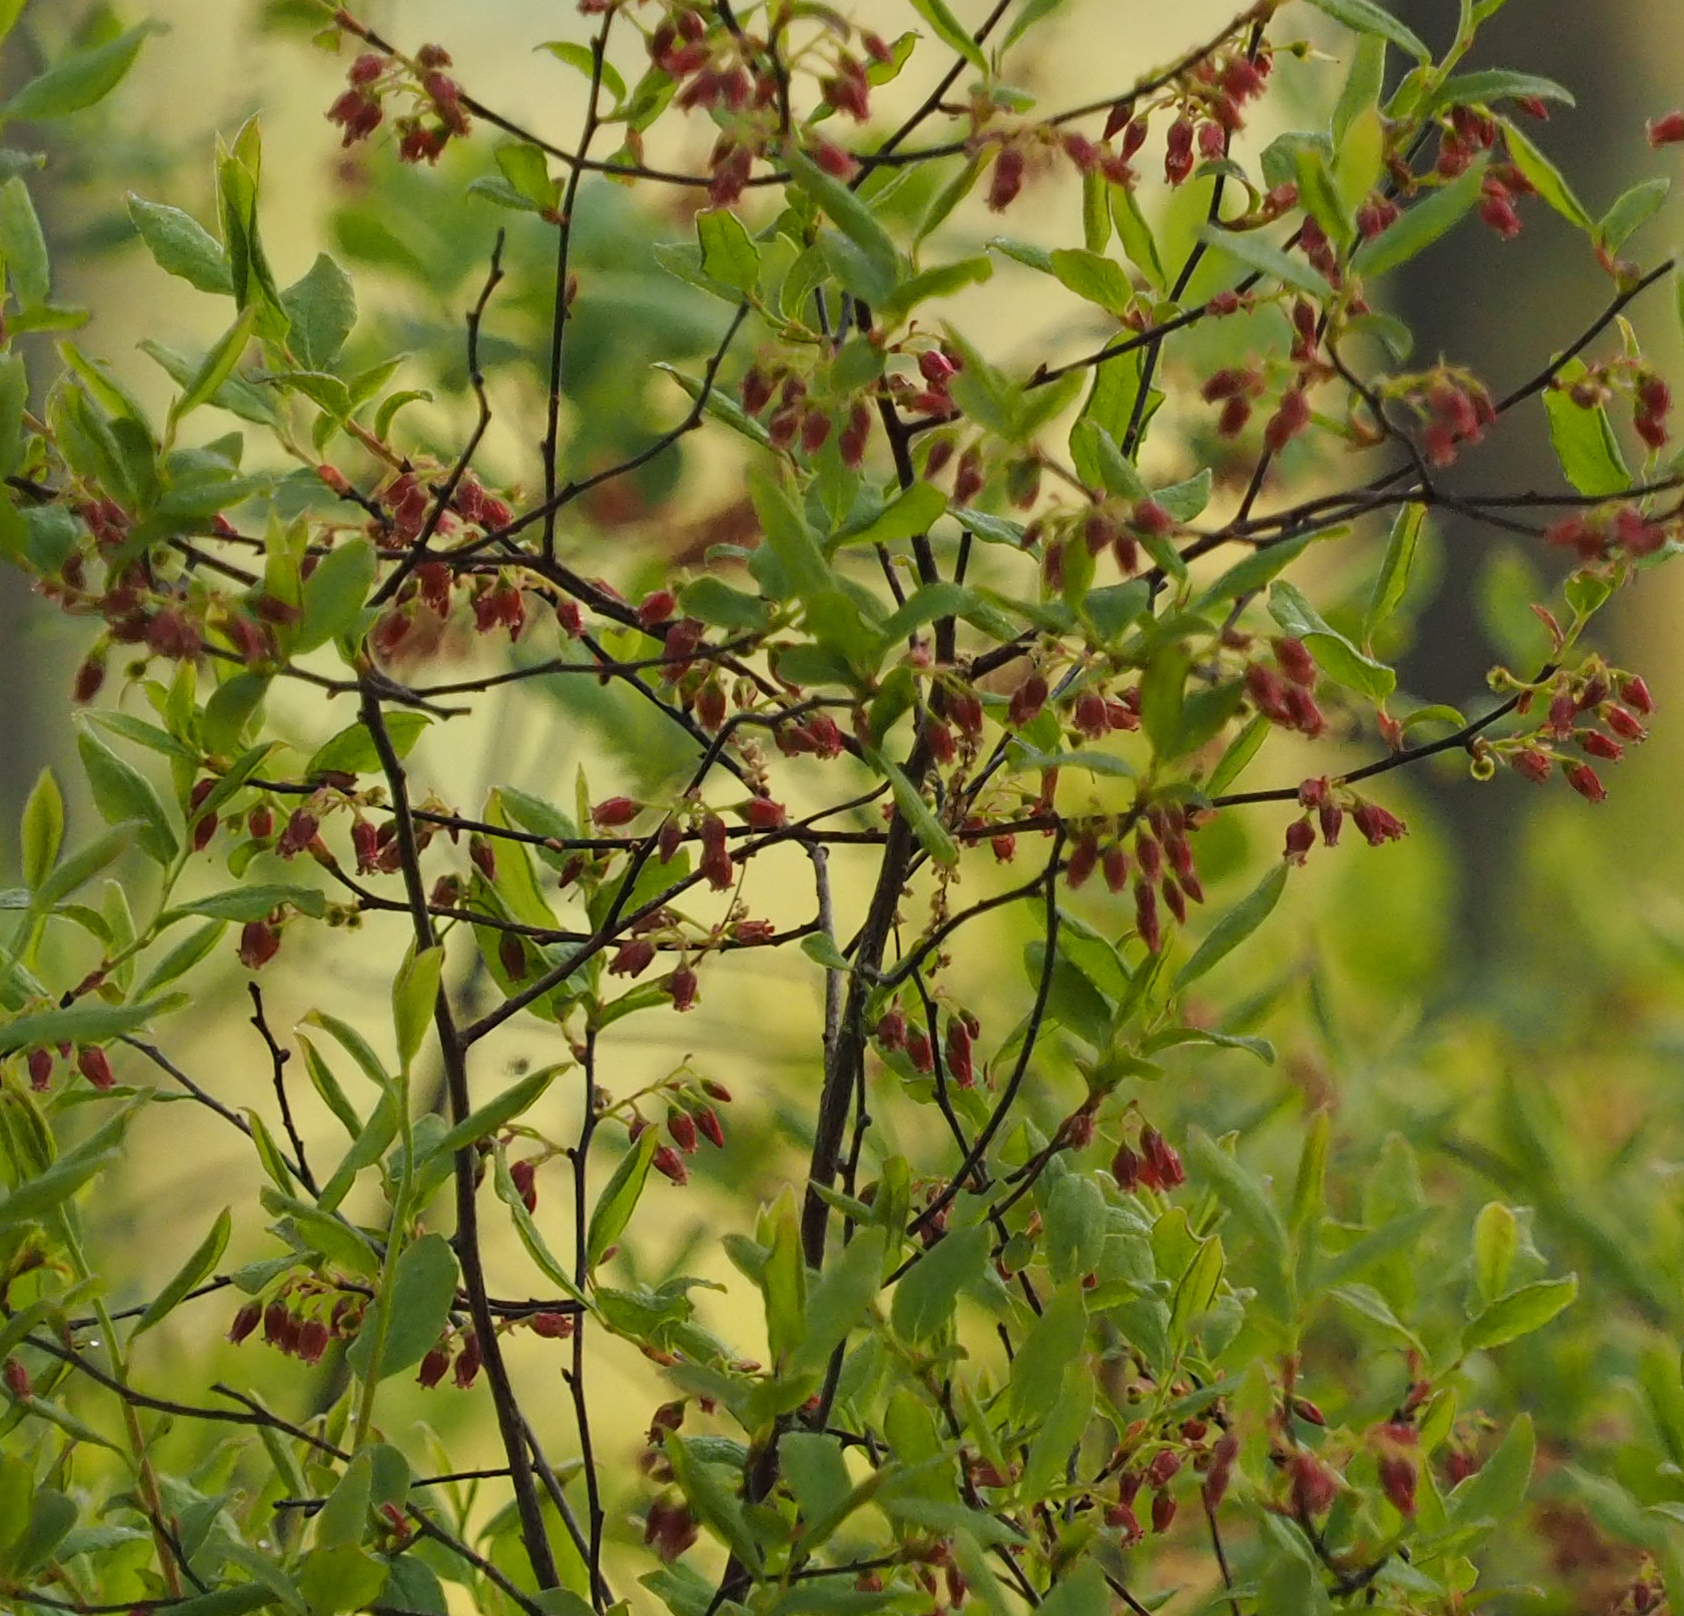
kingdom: Plantae
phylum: Tracheophyta
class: Magnoliopsida
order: Ericales
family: Ericaceae
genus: Gaylussacia
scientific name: Gaylussacia baccata
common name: Black huckleberry
